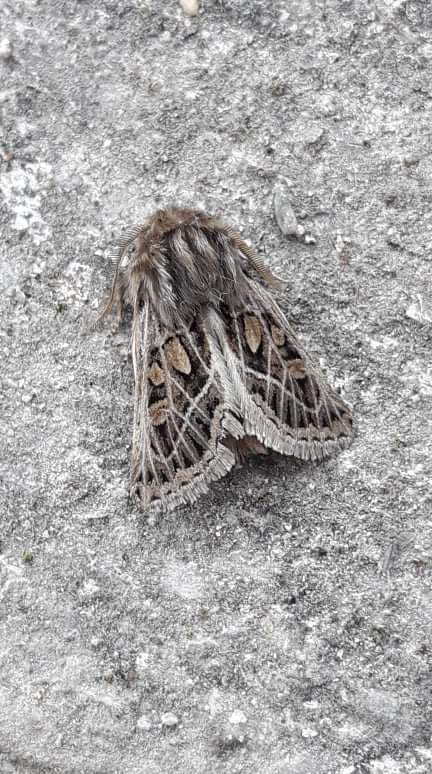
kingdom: Animalia
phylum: Arthropoda
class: Insecta
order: Lepidoptera
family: Noctuidae
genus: Ulochlaena
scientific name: Ulochlaena hirta
